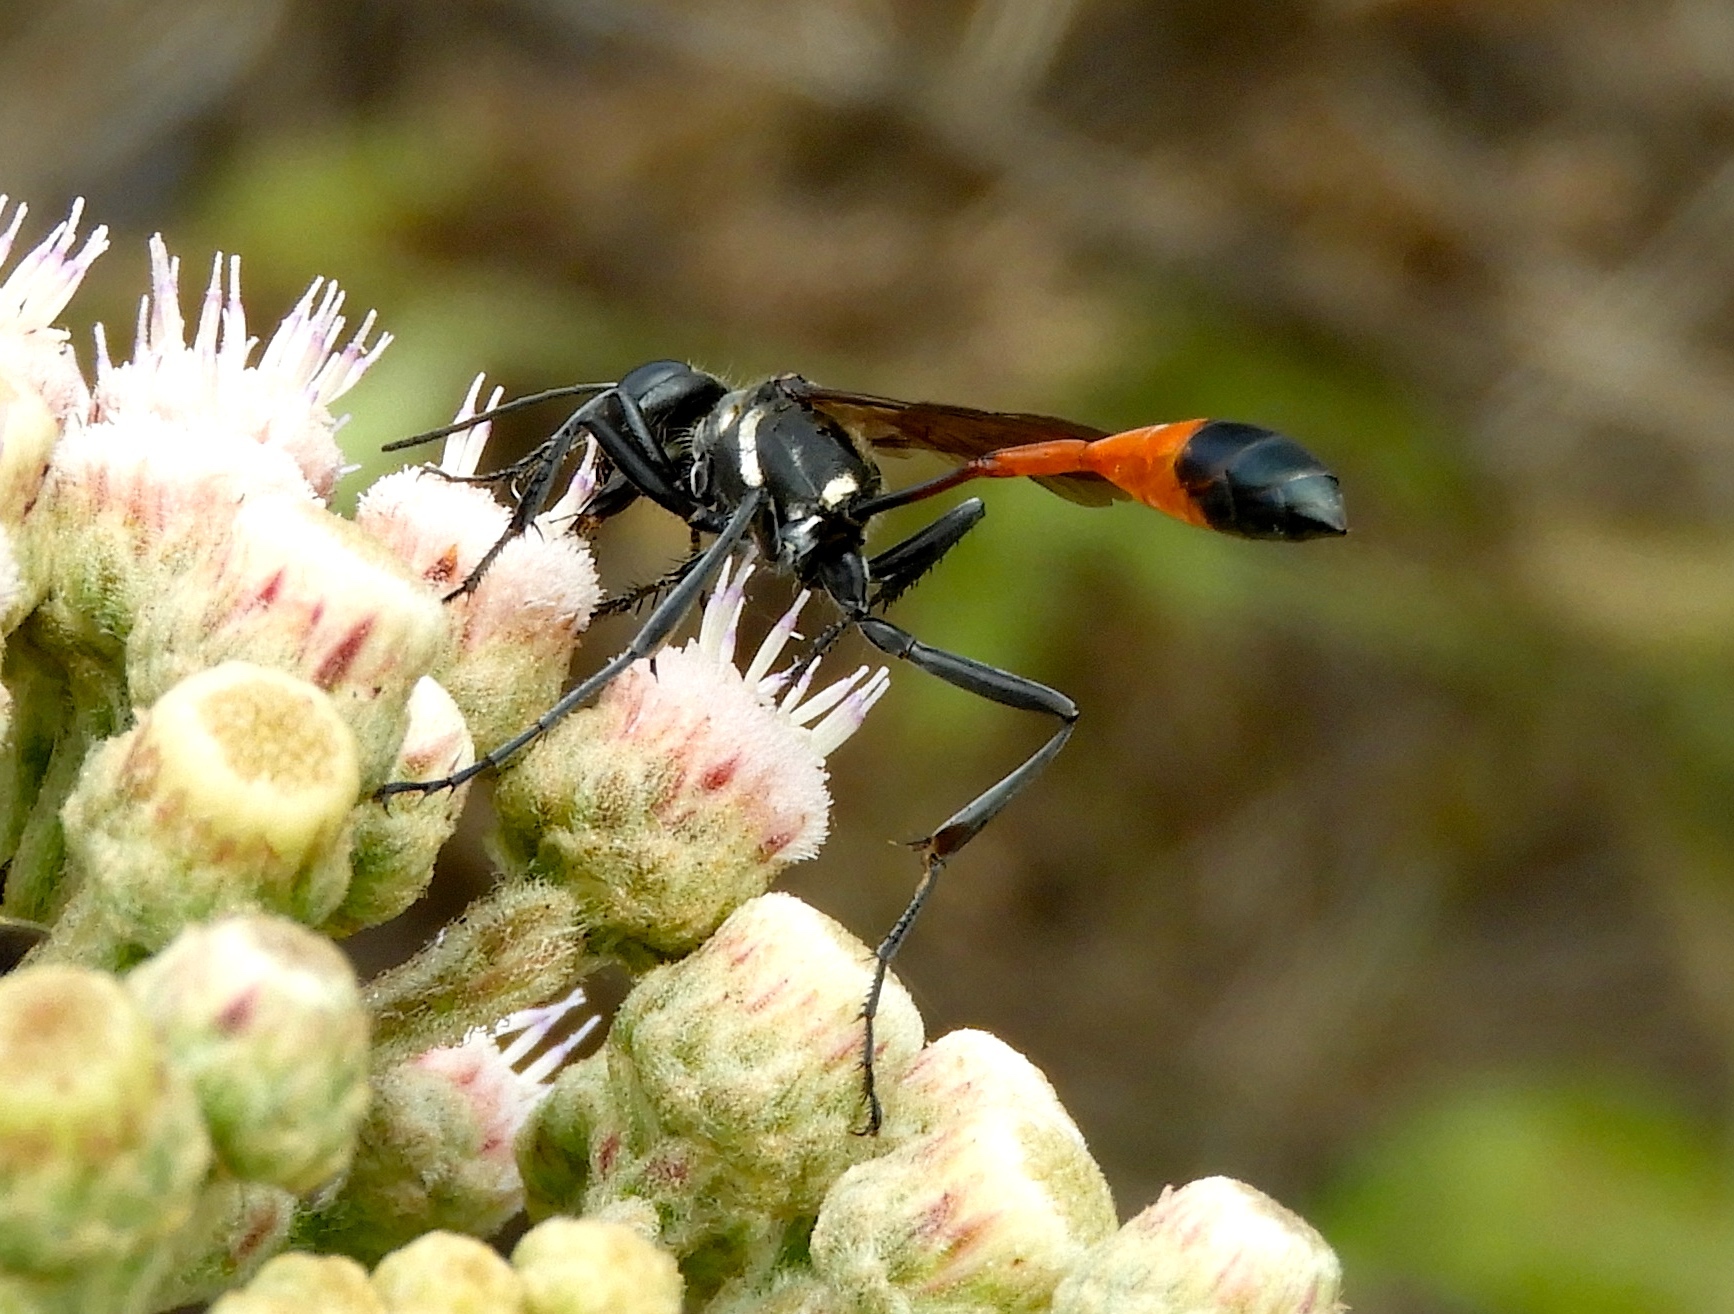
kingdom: Animalia
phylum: Arthropoda
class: Insecta
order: Hymenoptera
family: Sphecidae
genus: Ammophila
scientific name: Ammophila
